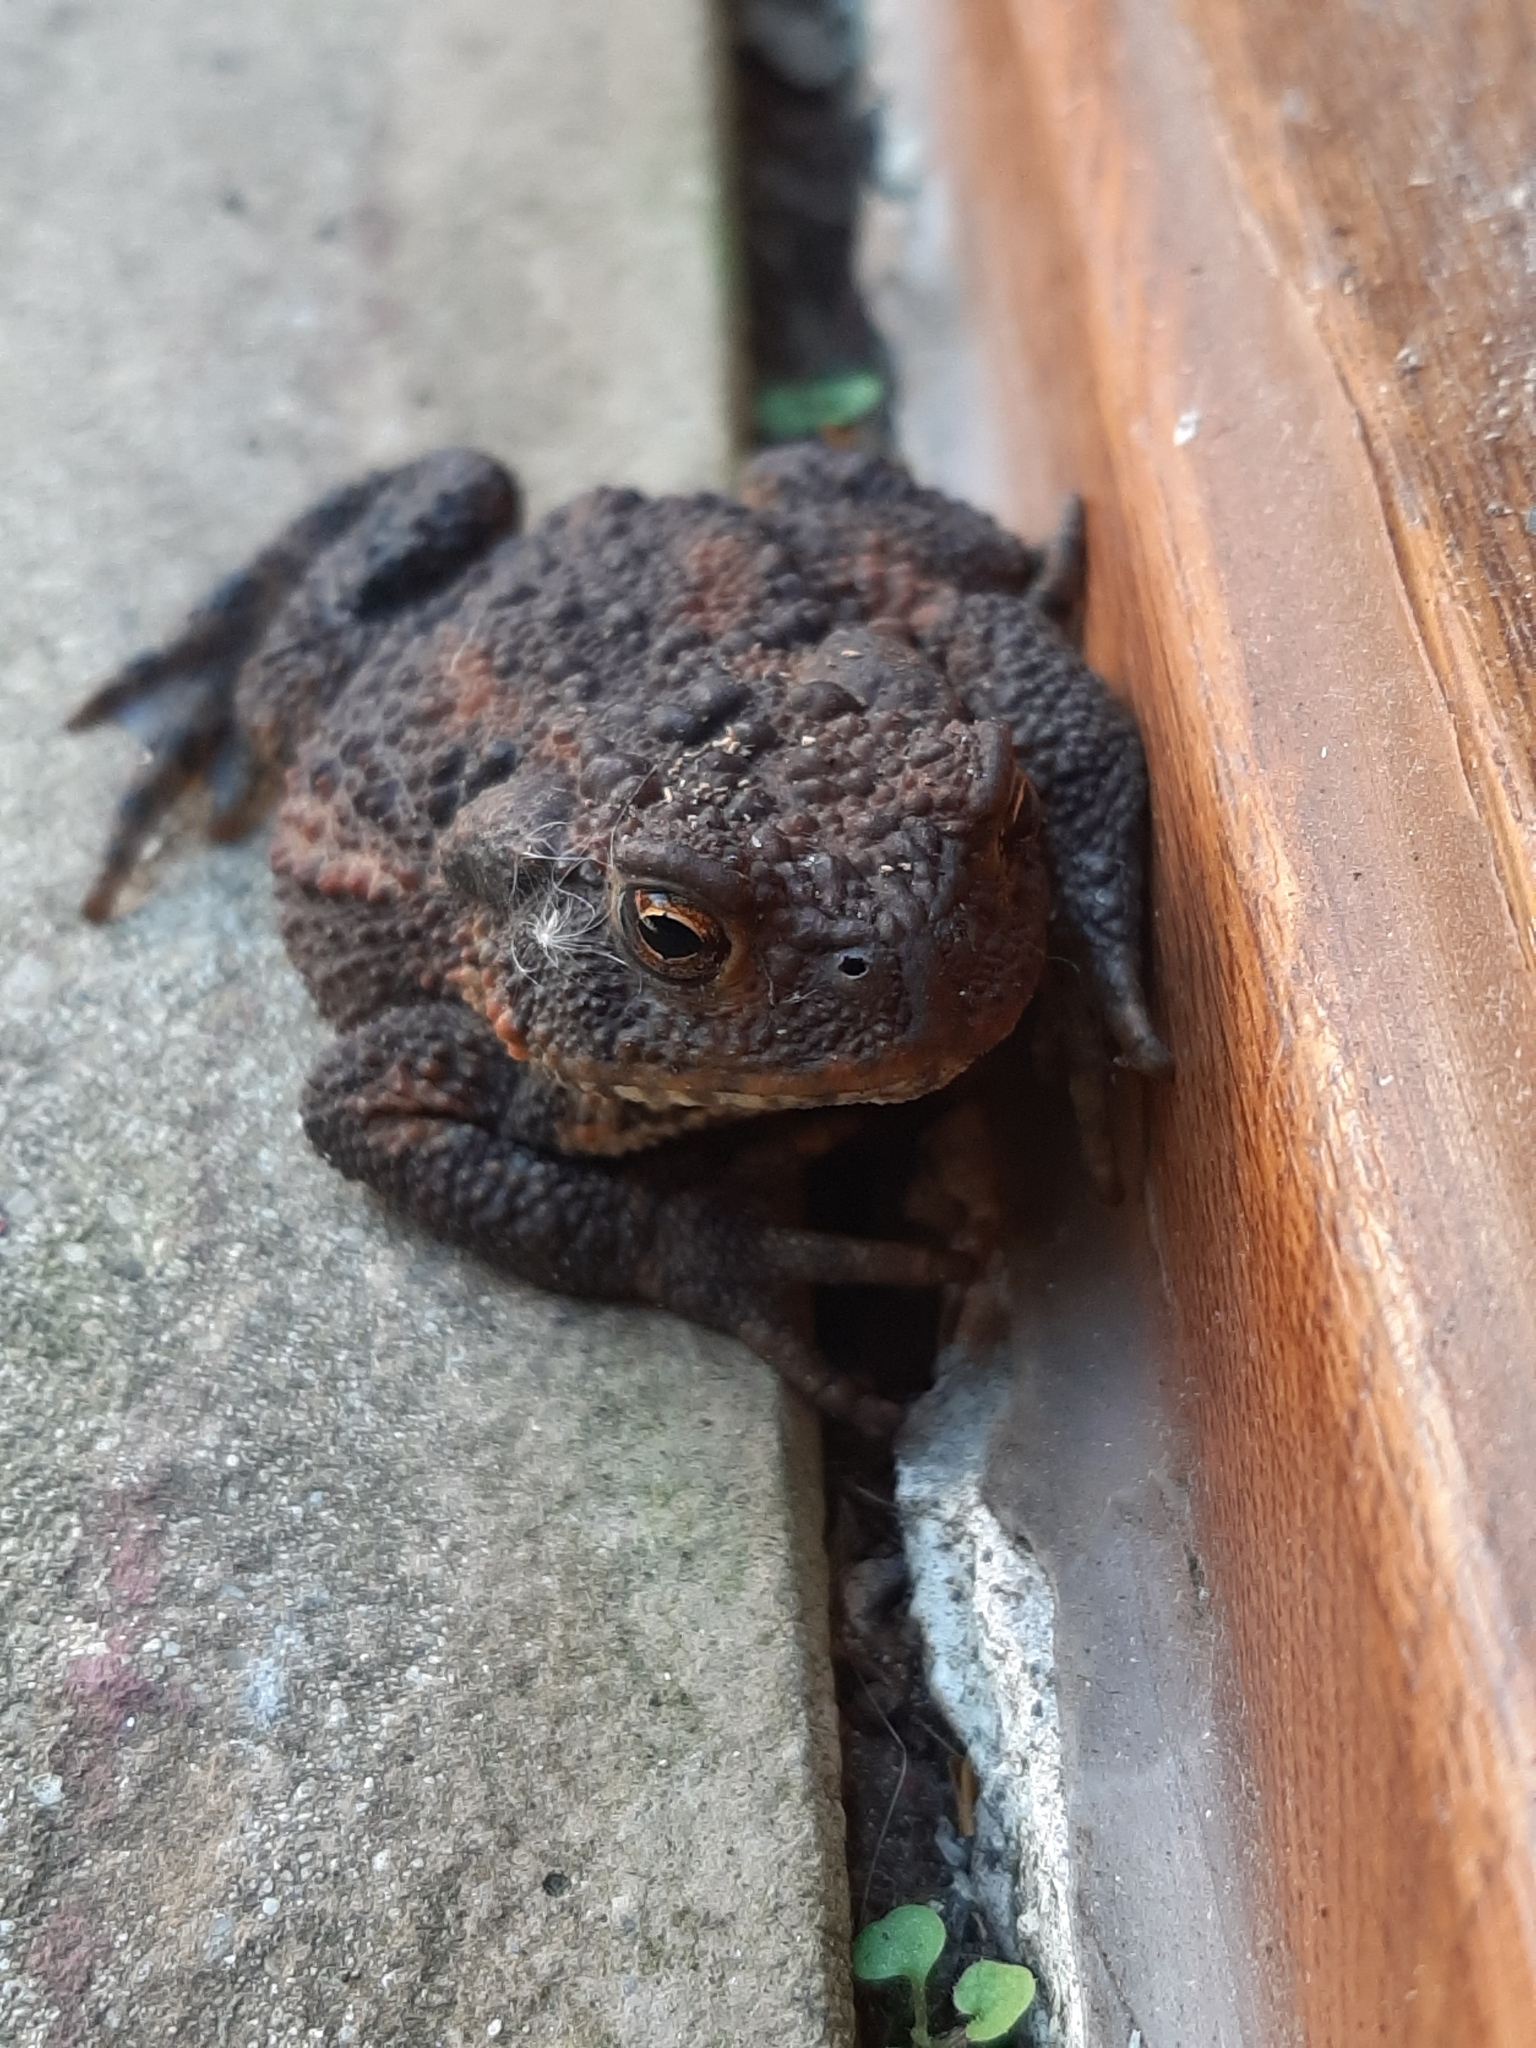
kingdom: Animalia
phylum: Chordata
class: Amphibia
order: Anura
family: Bufonidae
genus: Bufo
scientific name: Bufo bufo
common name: Common toad
